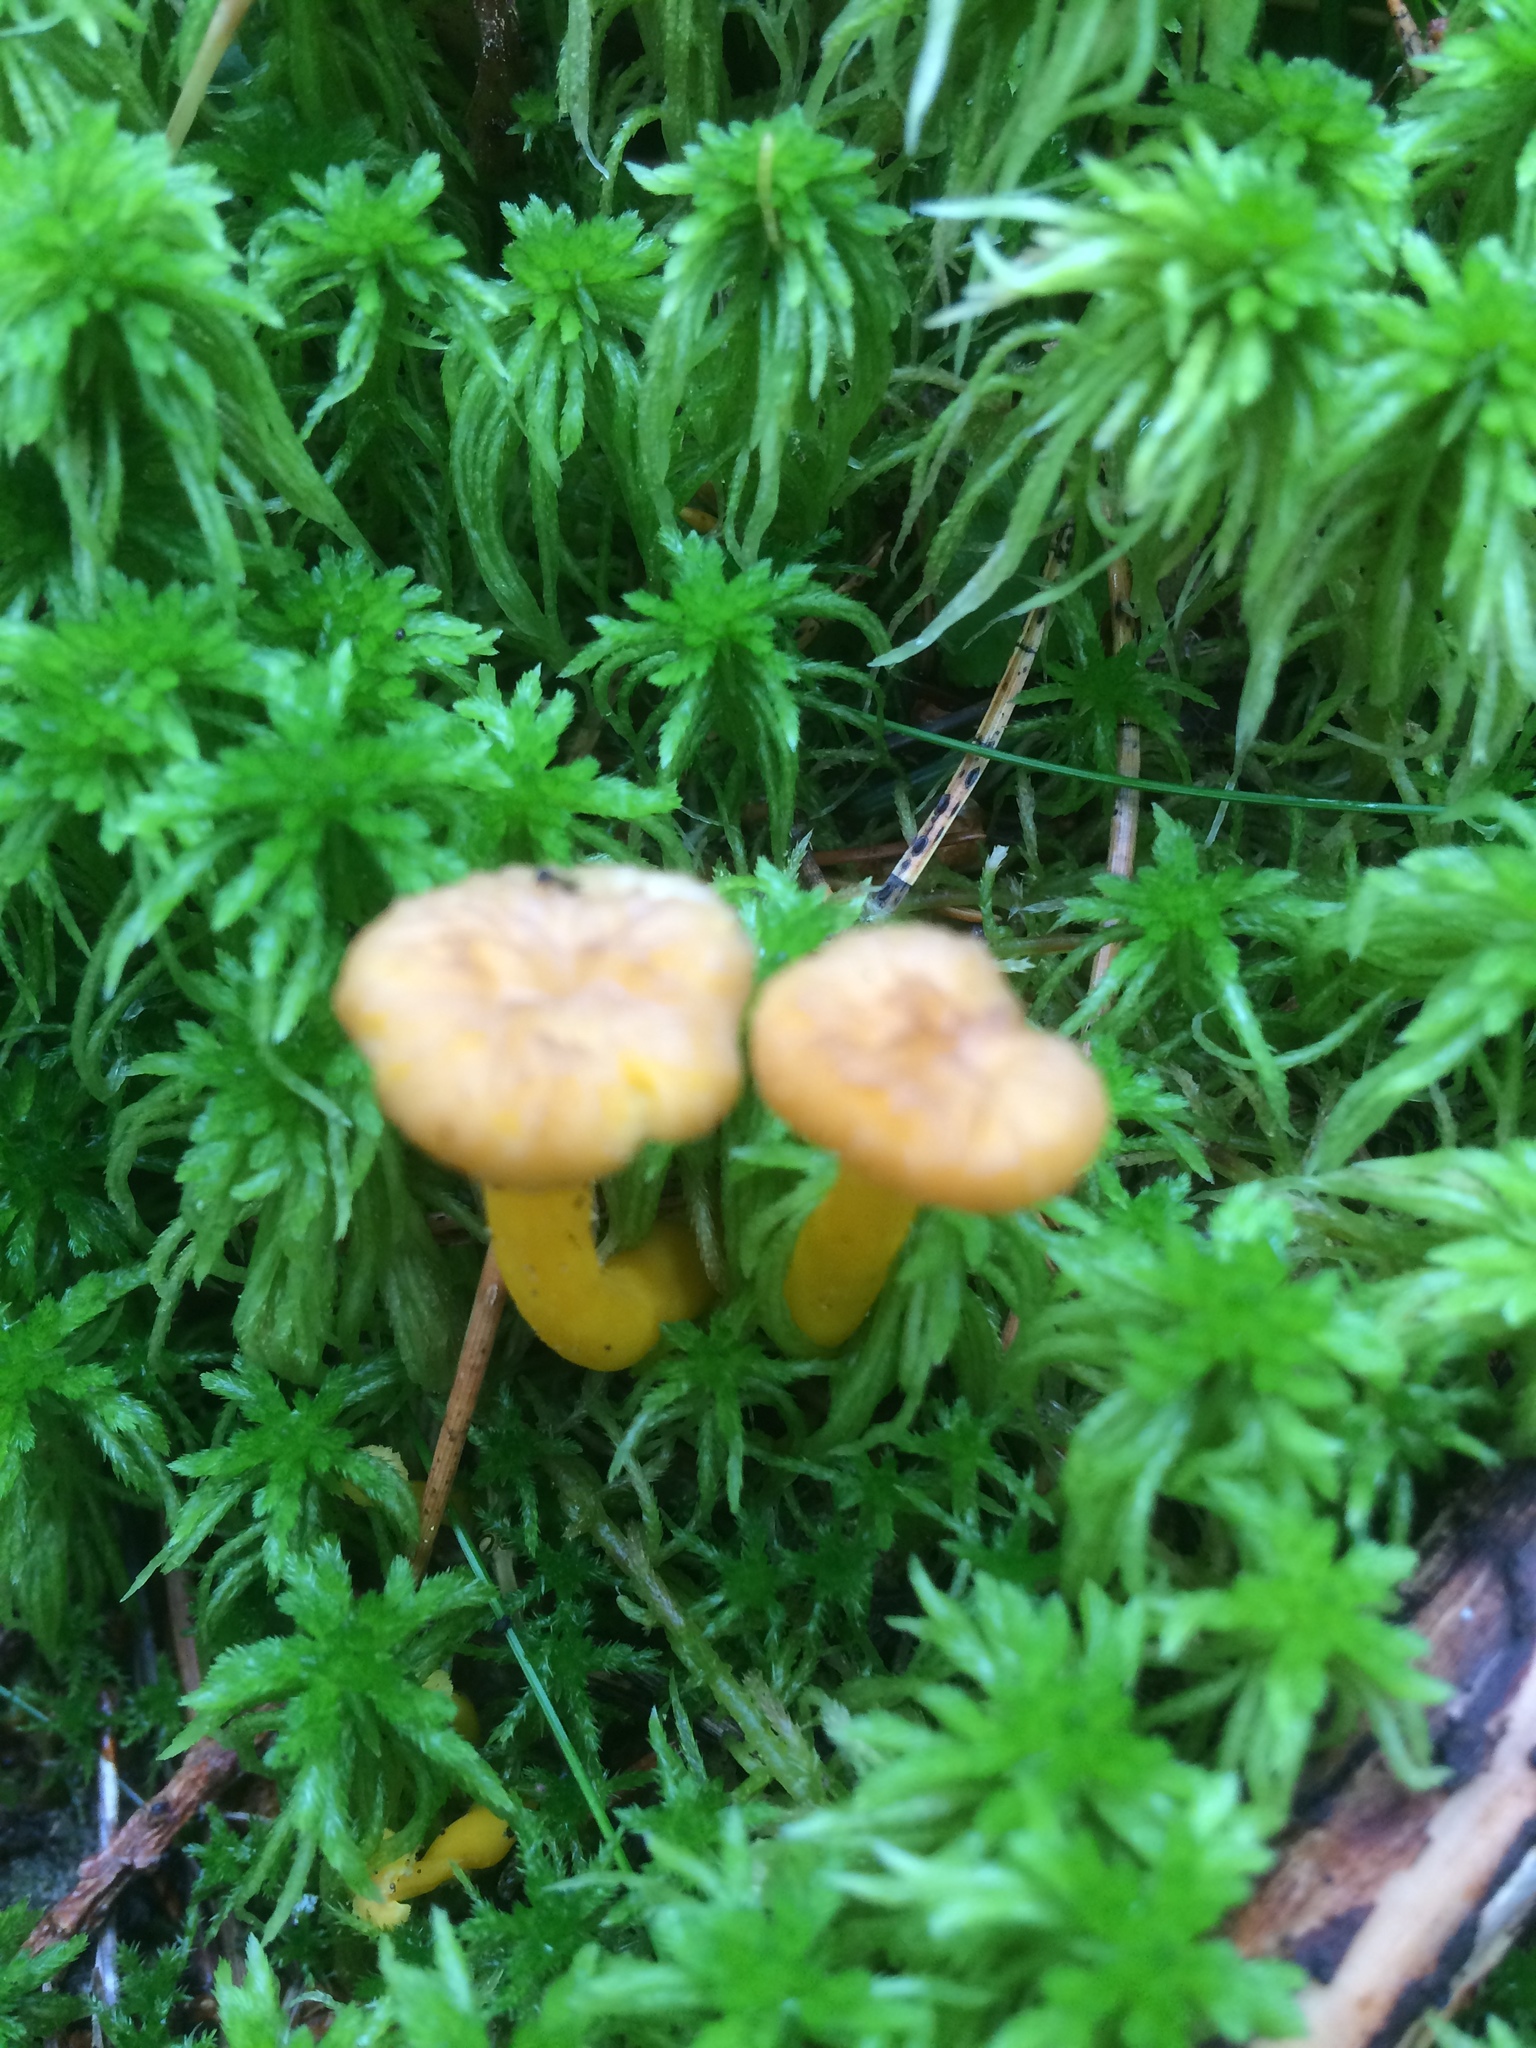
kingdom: Fungi
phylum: Basidiomycota
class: Agaricomycetes
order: Cantharellales
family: Hydnaceae
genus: Craterellus
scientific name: Craterellus tubaeformis
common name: Yellowfoot
